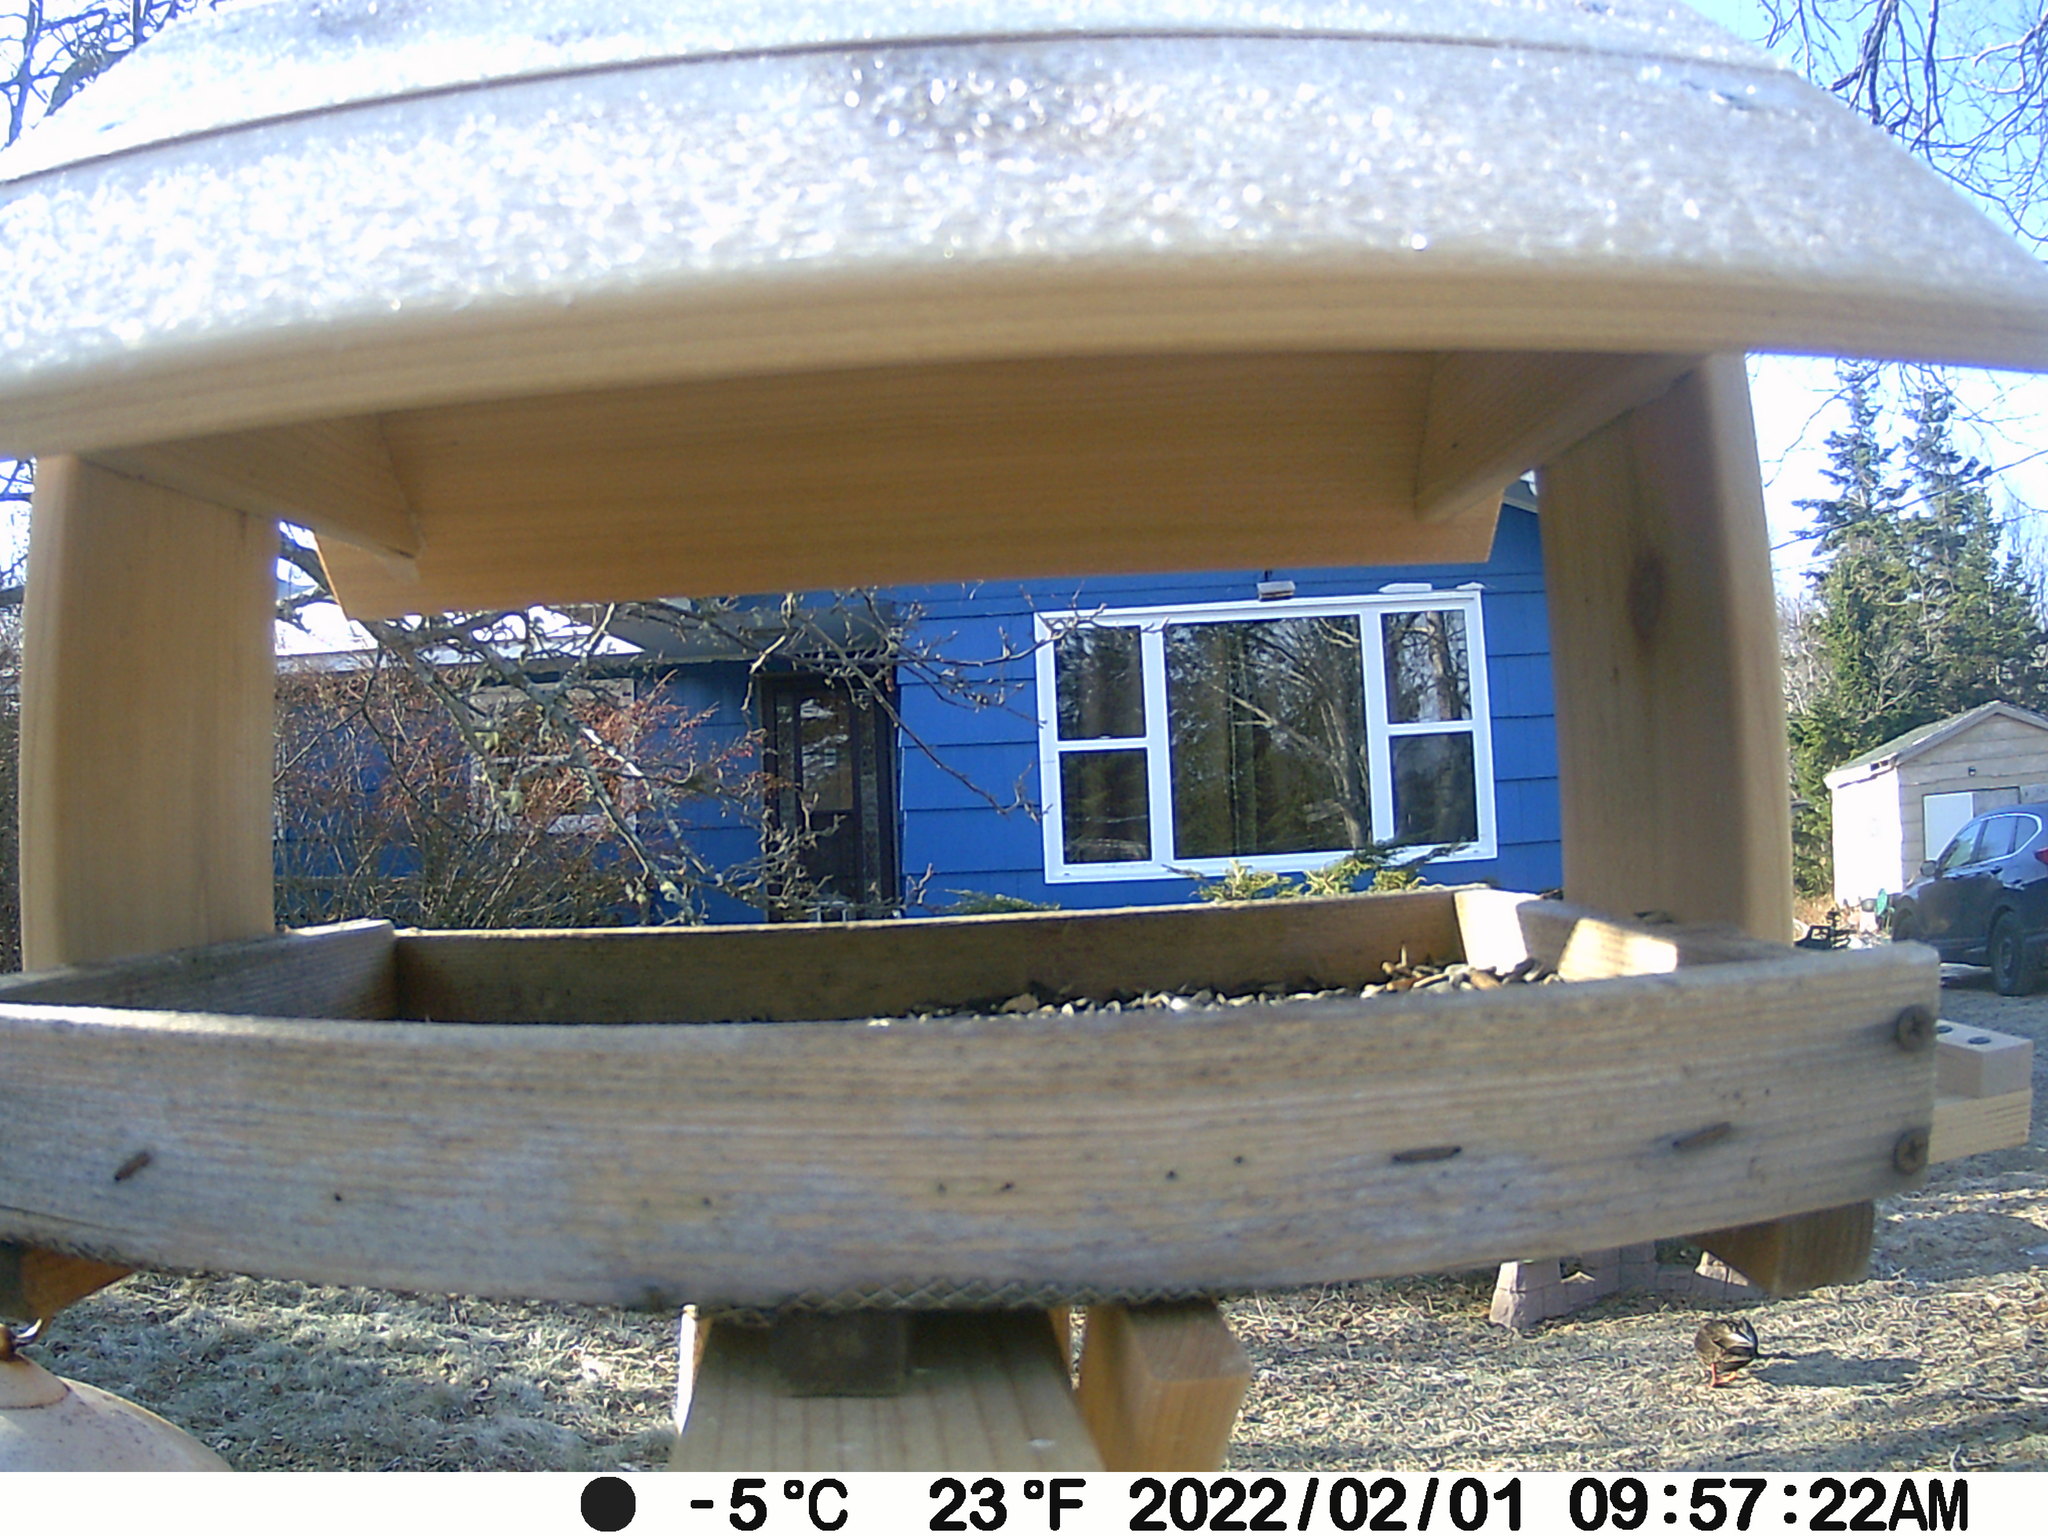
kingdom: Animalia
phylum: Chordata
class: Aves
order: Anseriformes
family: Anatidae
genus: Anas
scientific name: Anas rubripes
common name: American black duck
